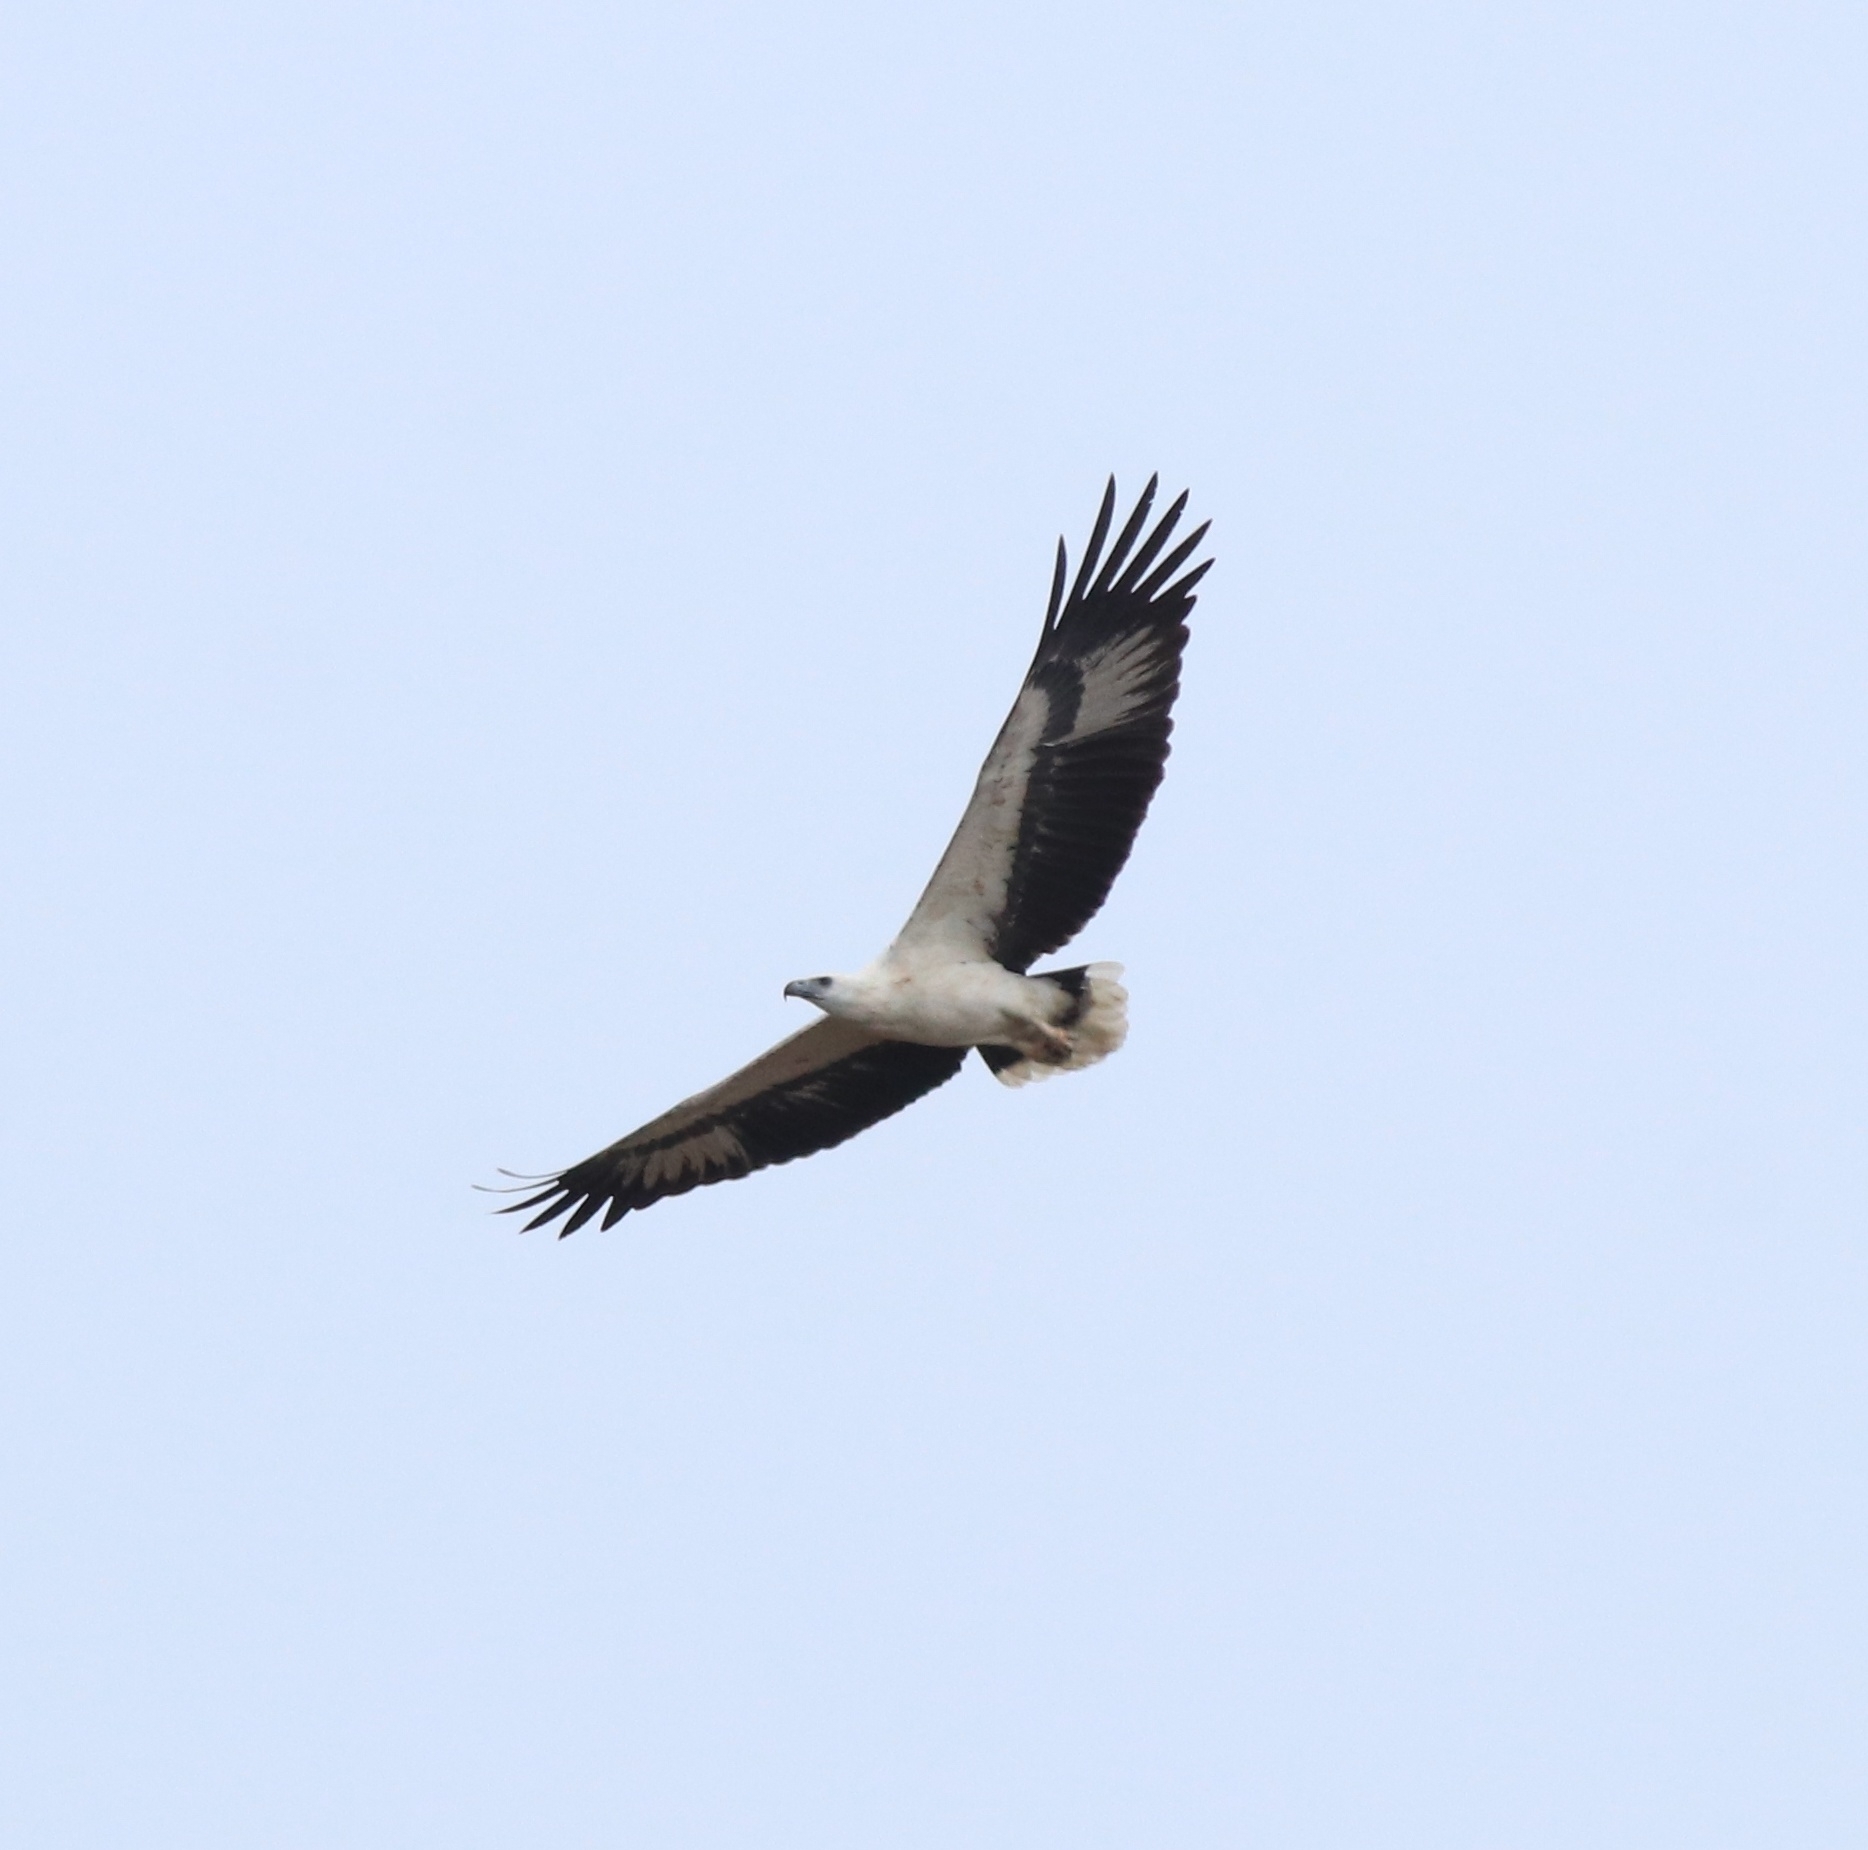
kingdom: Animalia
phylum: Chordata
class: Aves
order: Accipitriformes
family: Accipitridae
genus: Haliaeetus
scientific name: Haliaeetus leucogaster
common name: White-bellied sea eagle
